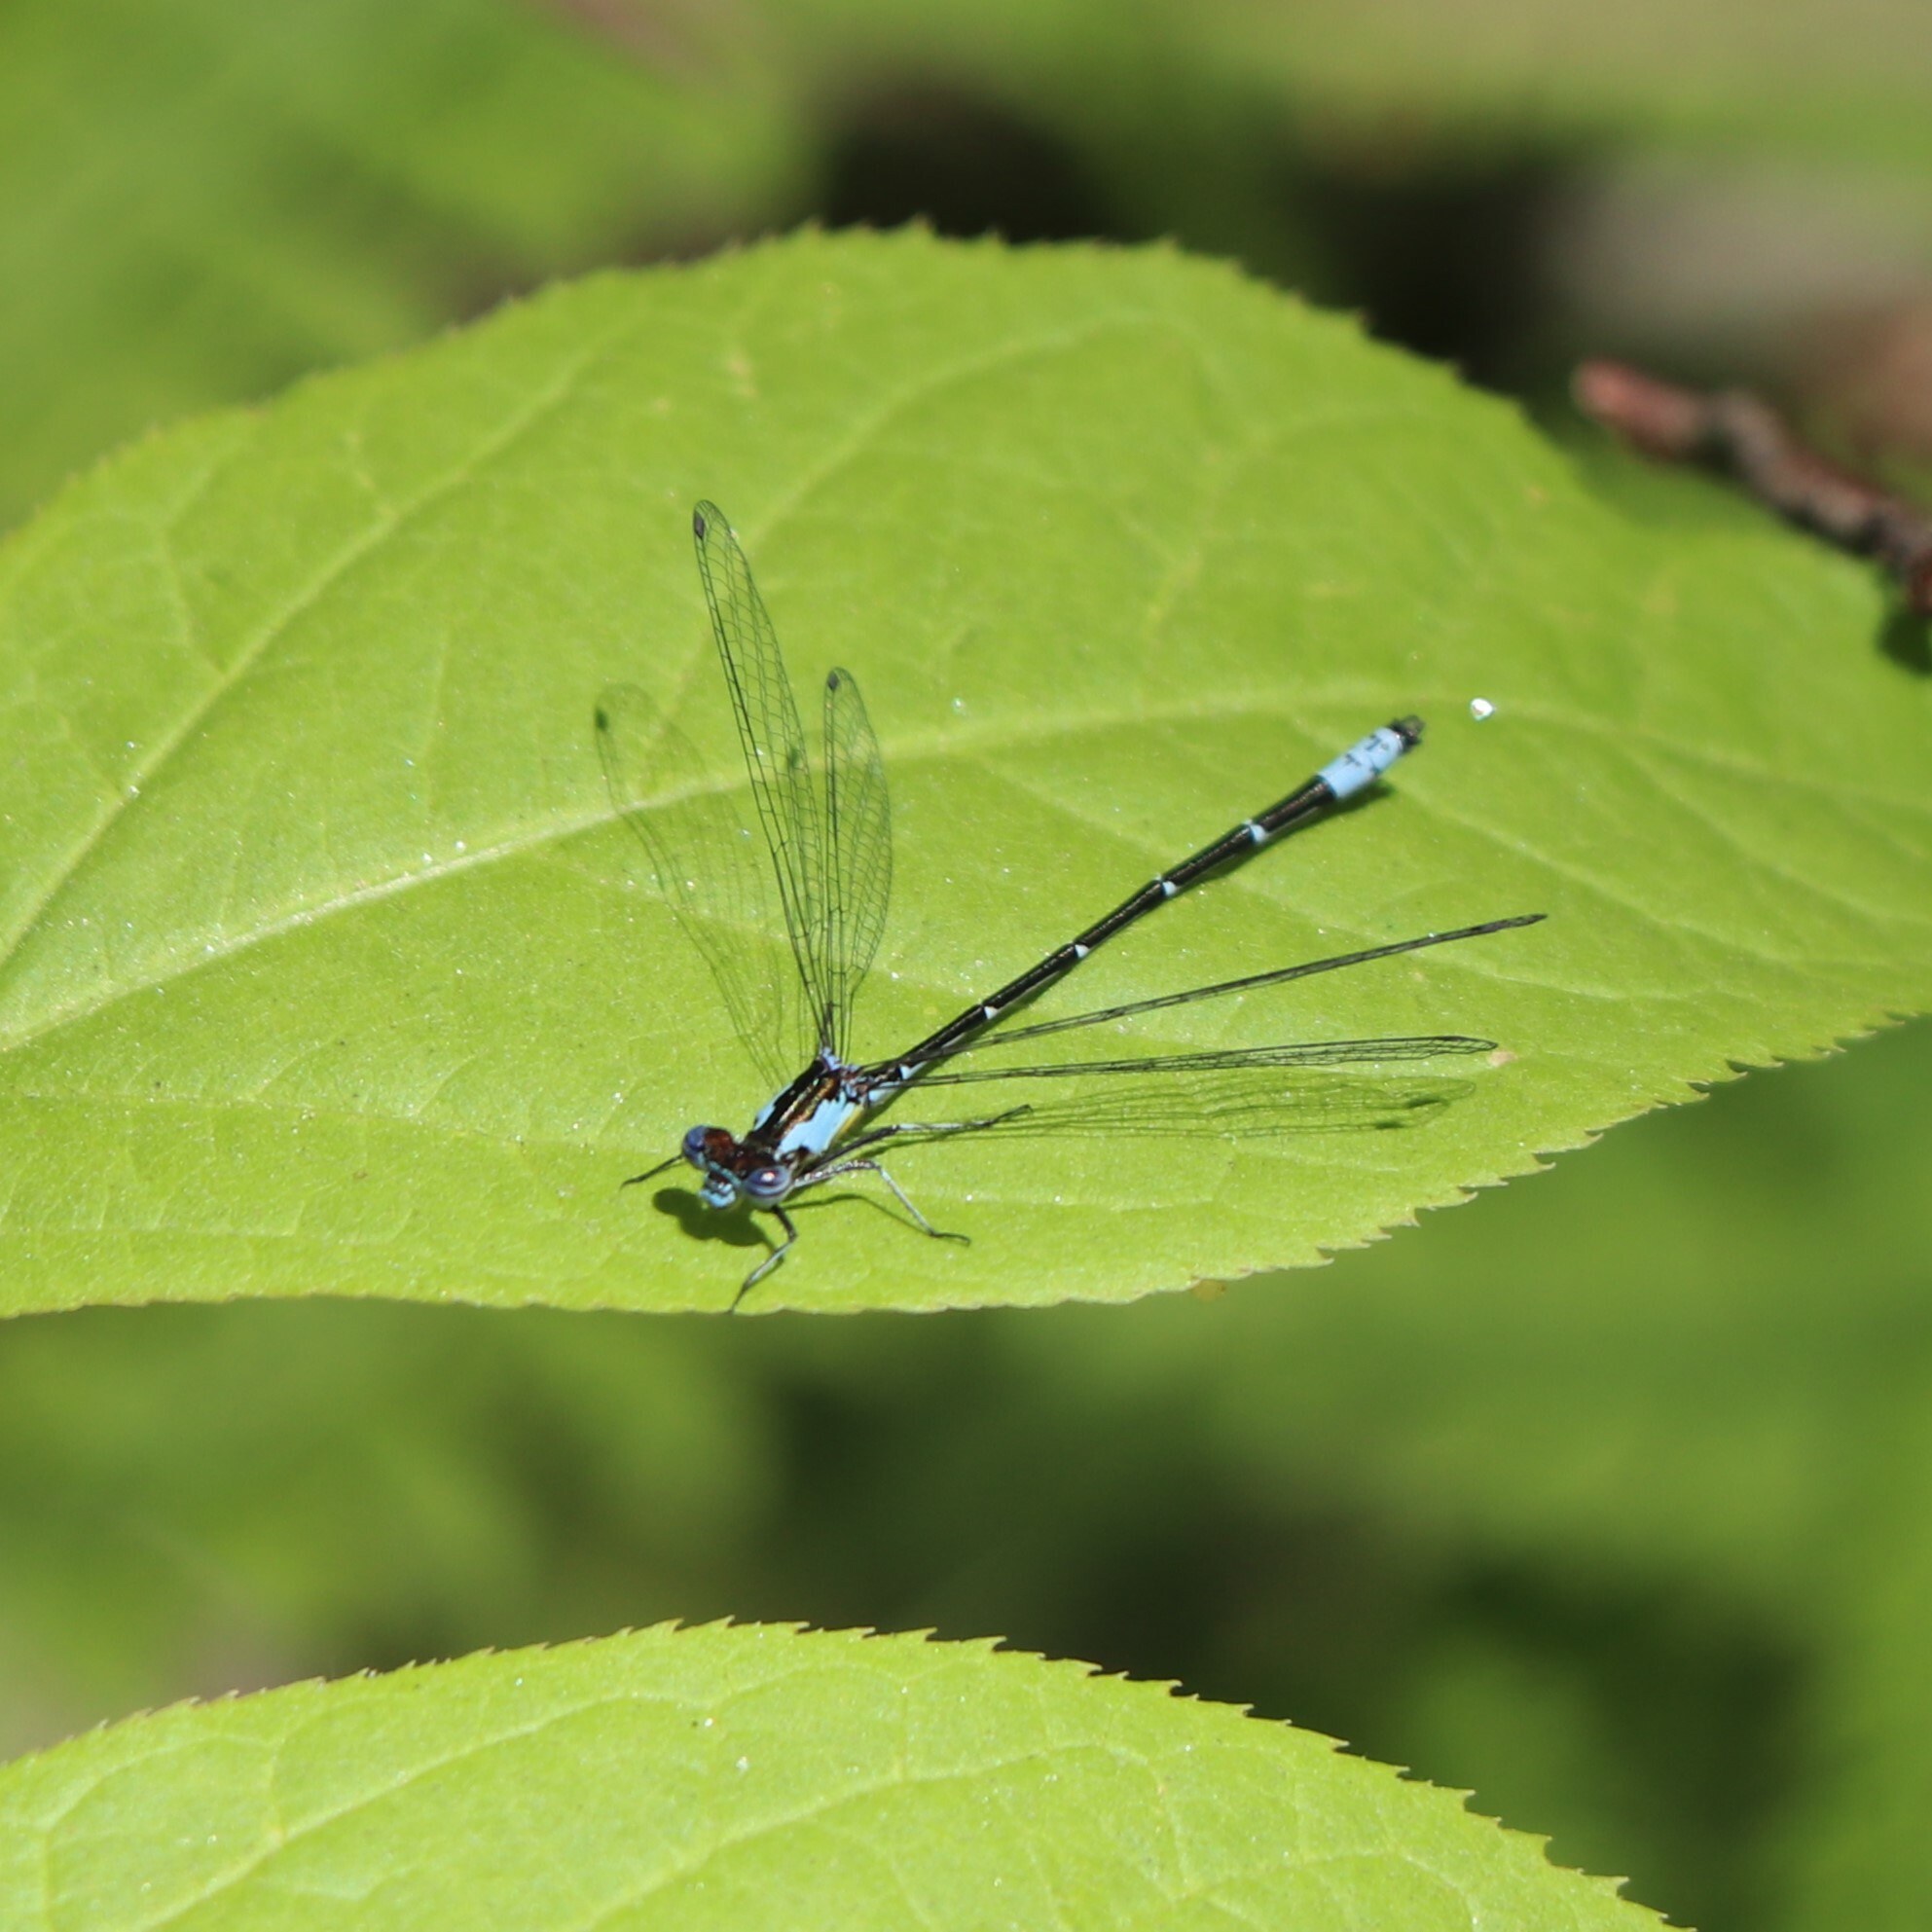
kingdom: Animalia
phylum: Arthropoda
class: Insecta
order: Odonata
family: Coenagrionidae
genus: Chromagrion
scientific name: Chromagrion conditum
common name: Aurora damsel
